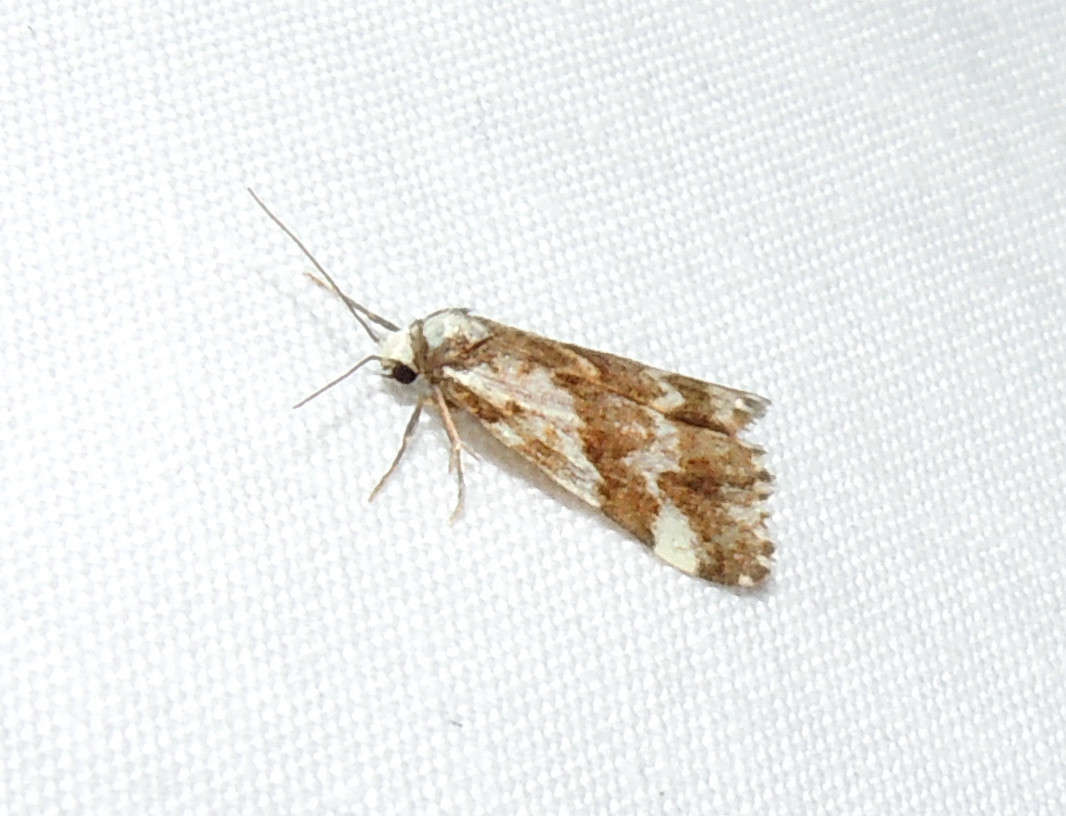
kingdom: Animalia
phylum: Arthropoda
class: Insecta
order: Lepidoptera
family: Erebidae
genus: Damias
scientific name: Damias procrena
